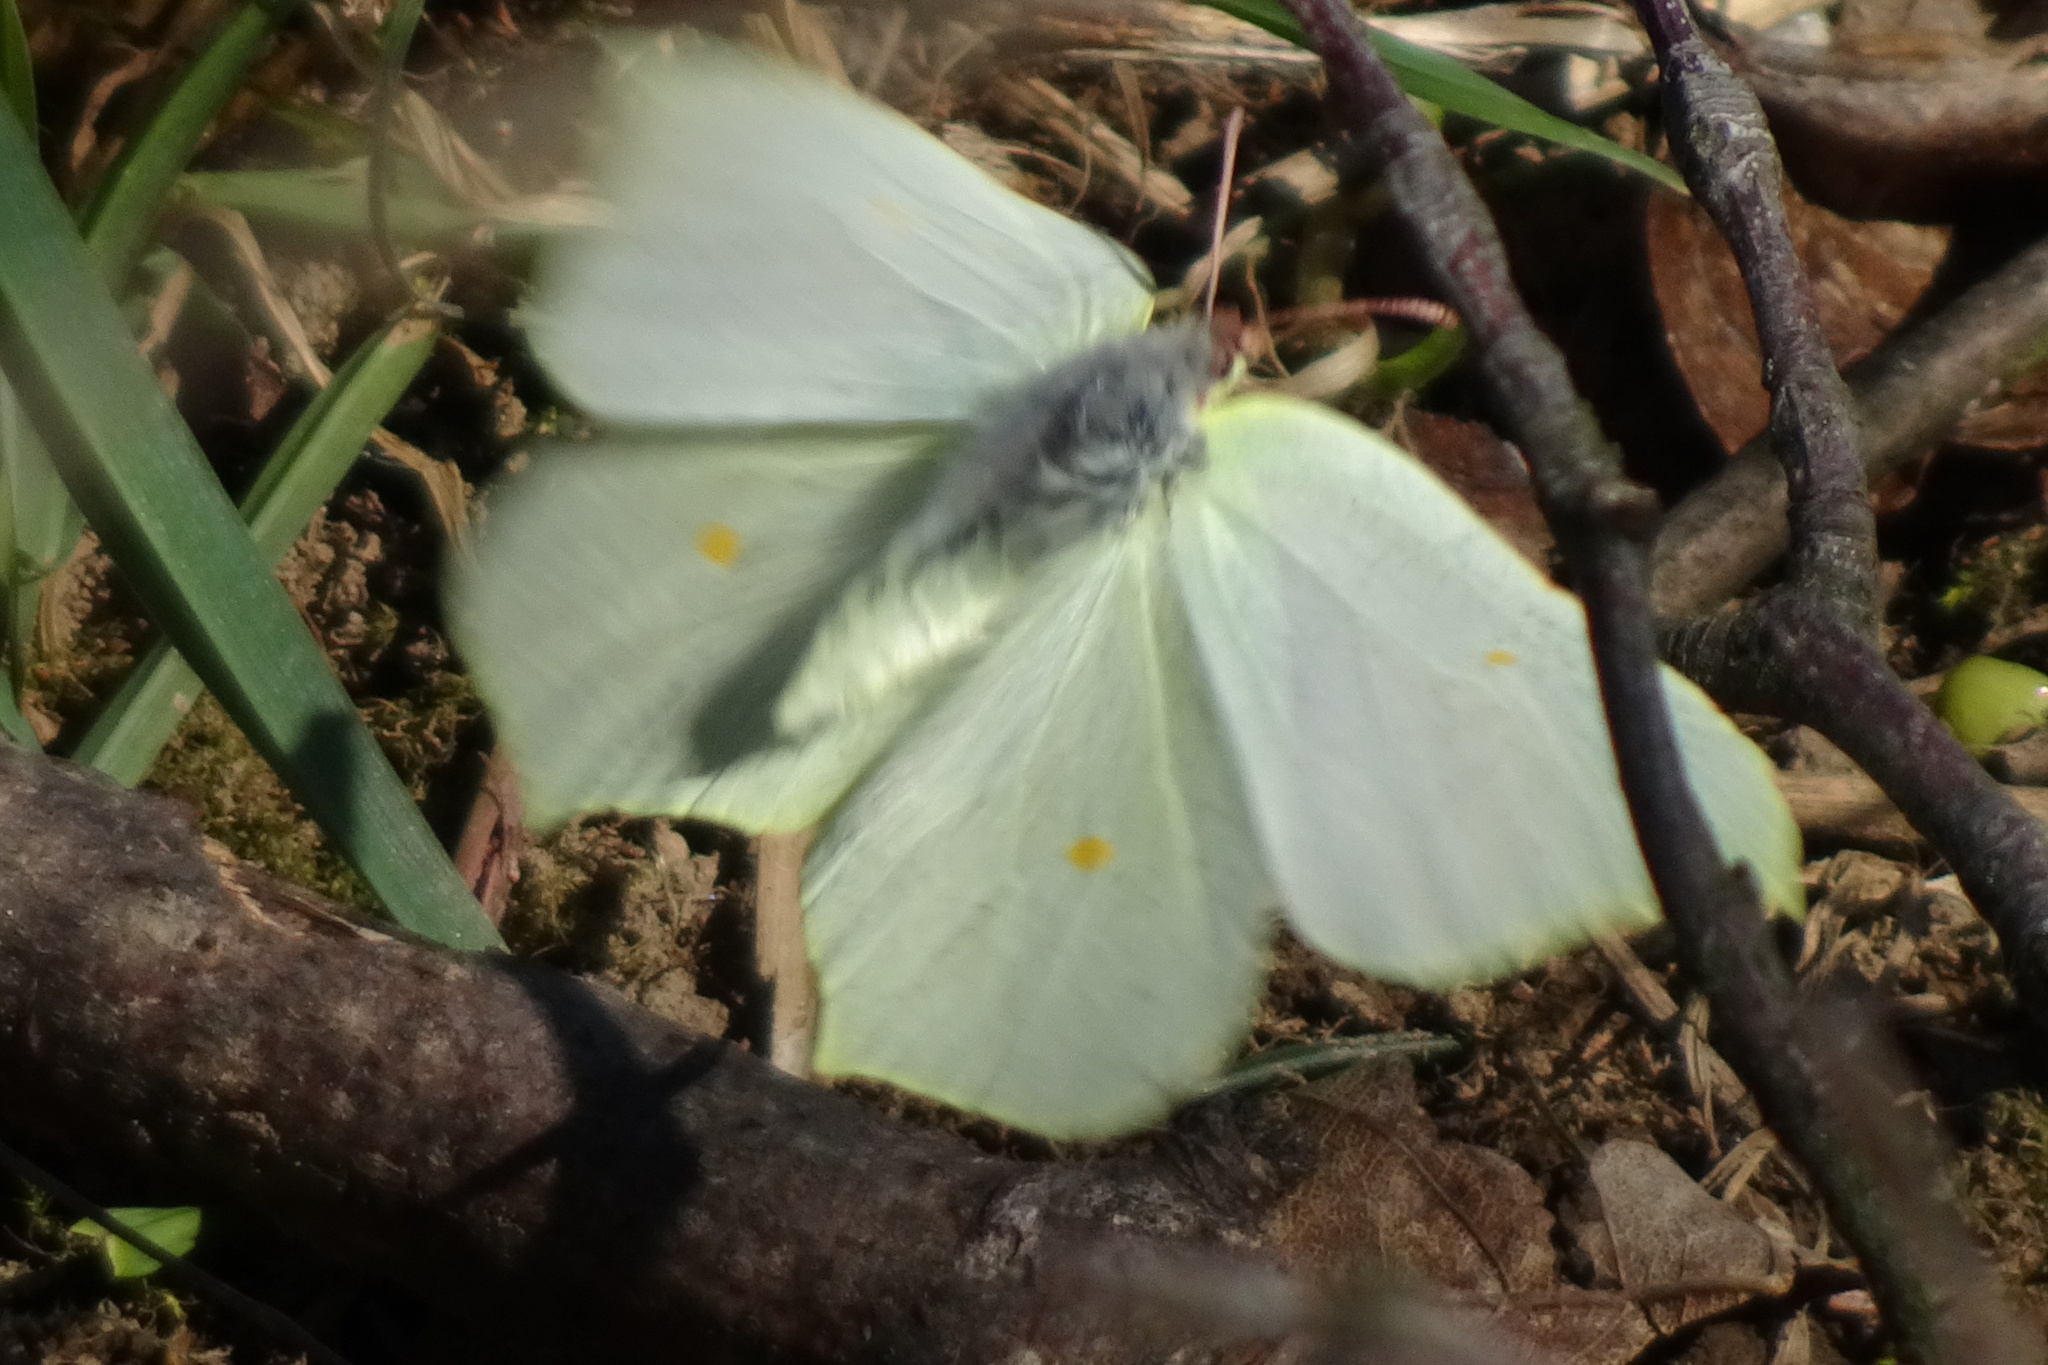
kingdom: Animalia
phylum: Arthropoda
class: Insecta
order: Lepidoptera
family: Pieridae
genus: Gonepteryx
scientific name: Gonepteryx rhamni
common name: Brimstone
